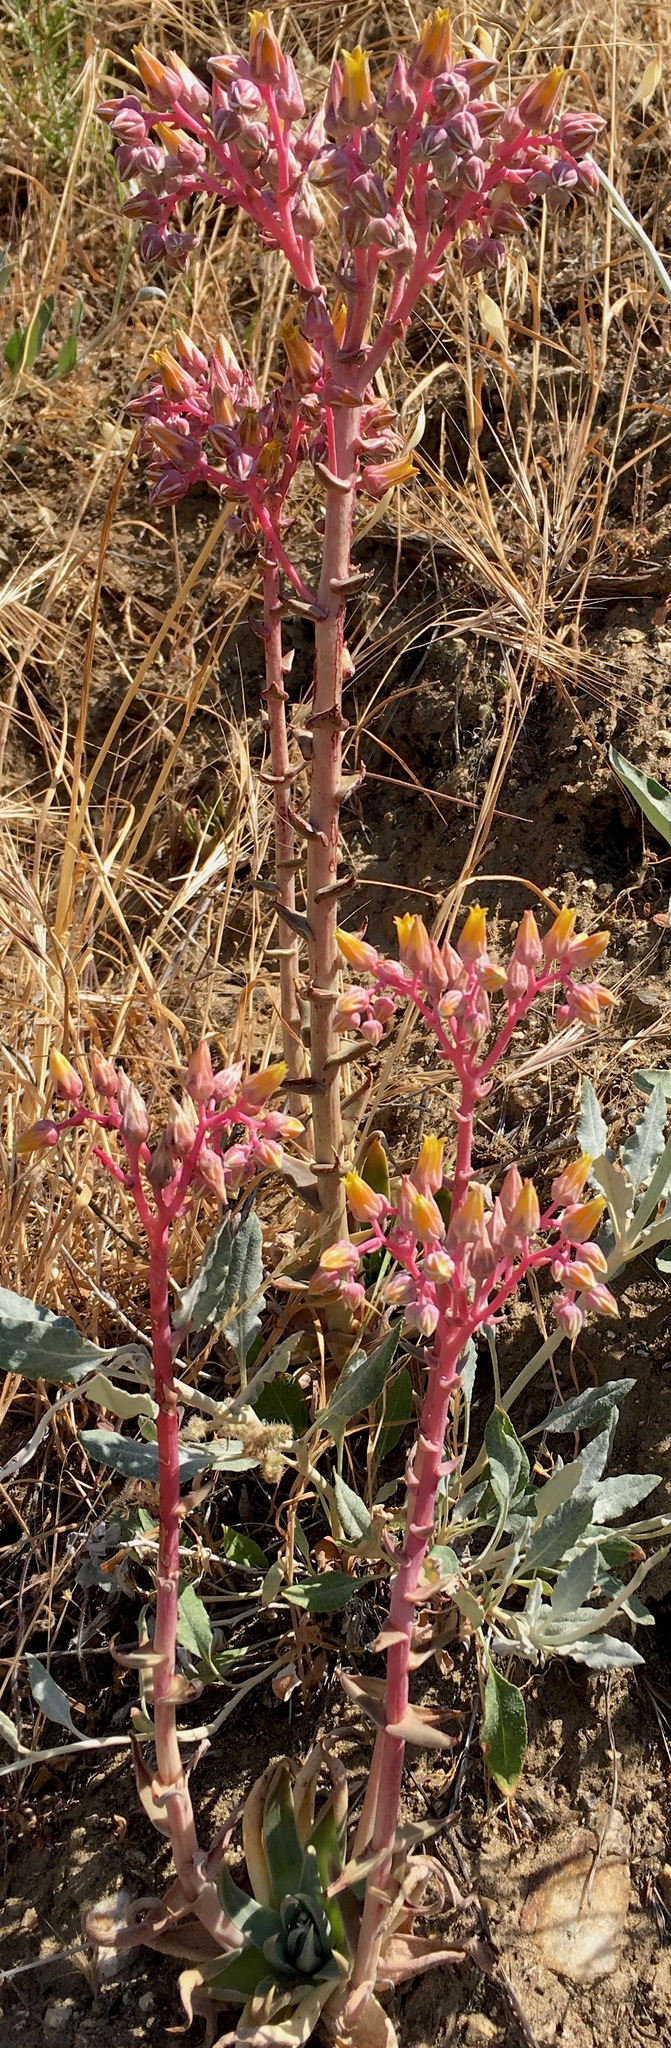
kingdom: Plantae
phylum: Tracheophyta
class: Magnoliopsida
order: Saxifragales
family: Crassulaceae
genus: Dudleya
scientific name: Dudleya saxosa
